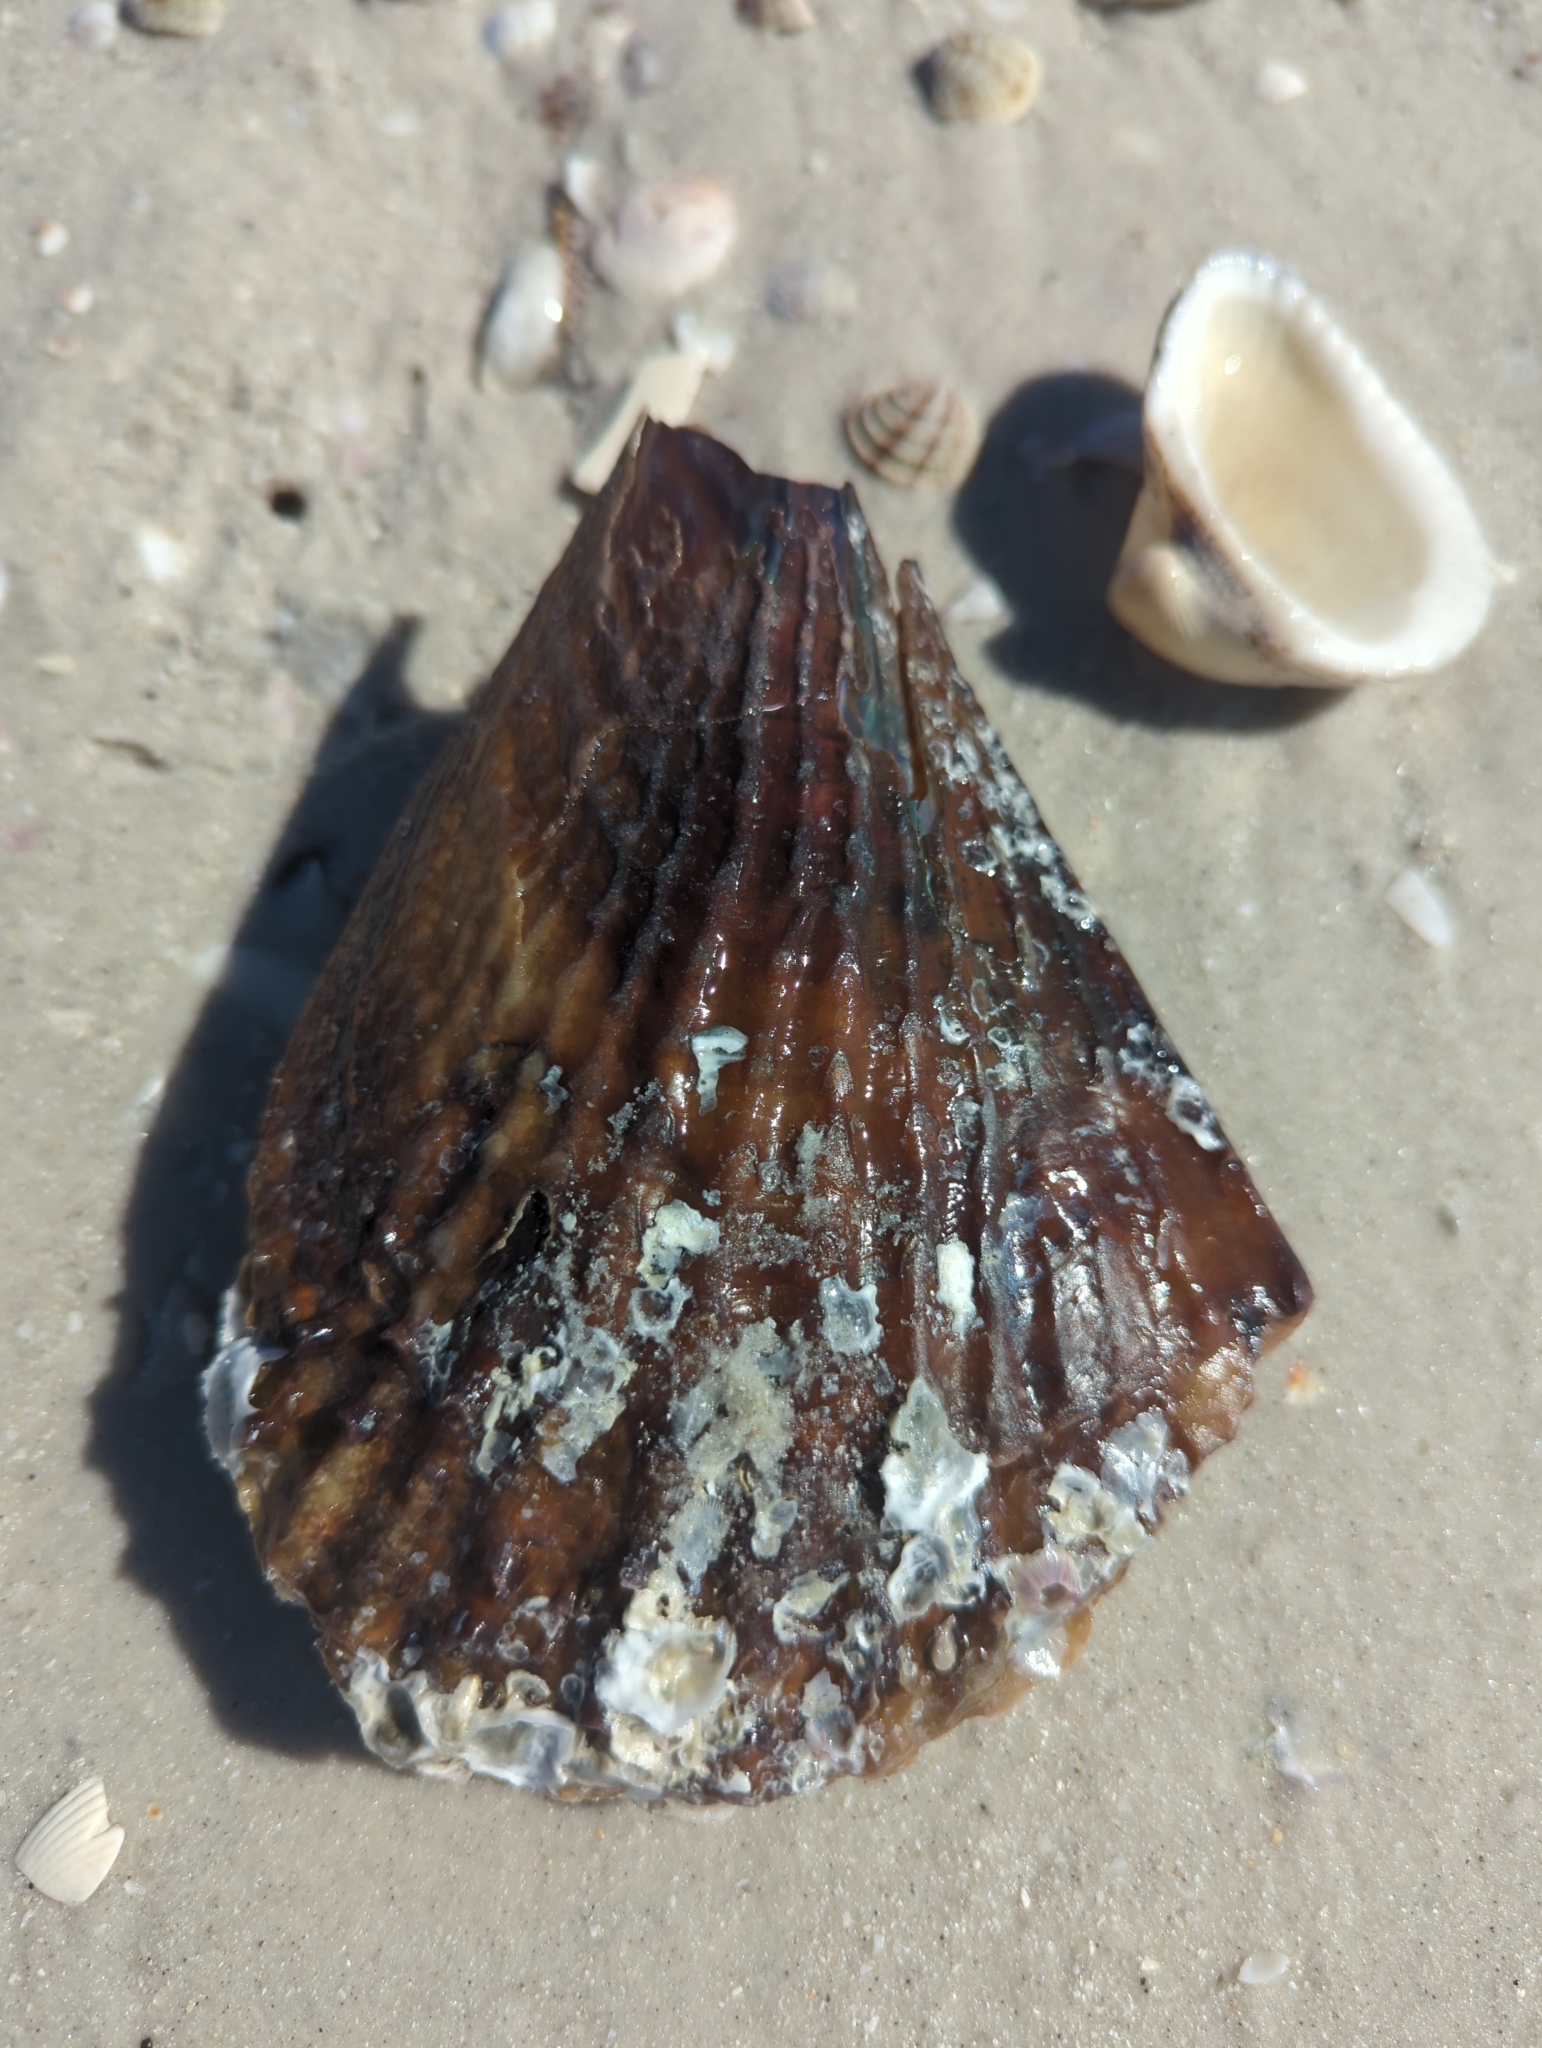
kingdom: Animalia
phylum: Mollusca
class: Bivalvia
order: Ostreida
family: Pinnidae
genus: Atrina
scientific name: Atrina rigida
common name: Stiff penshell
